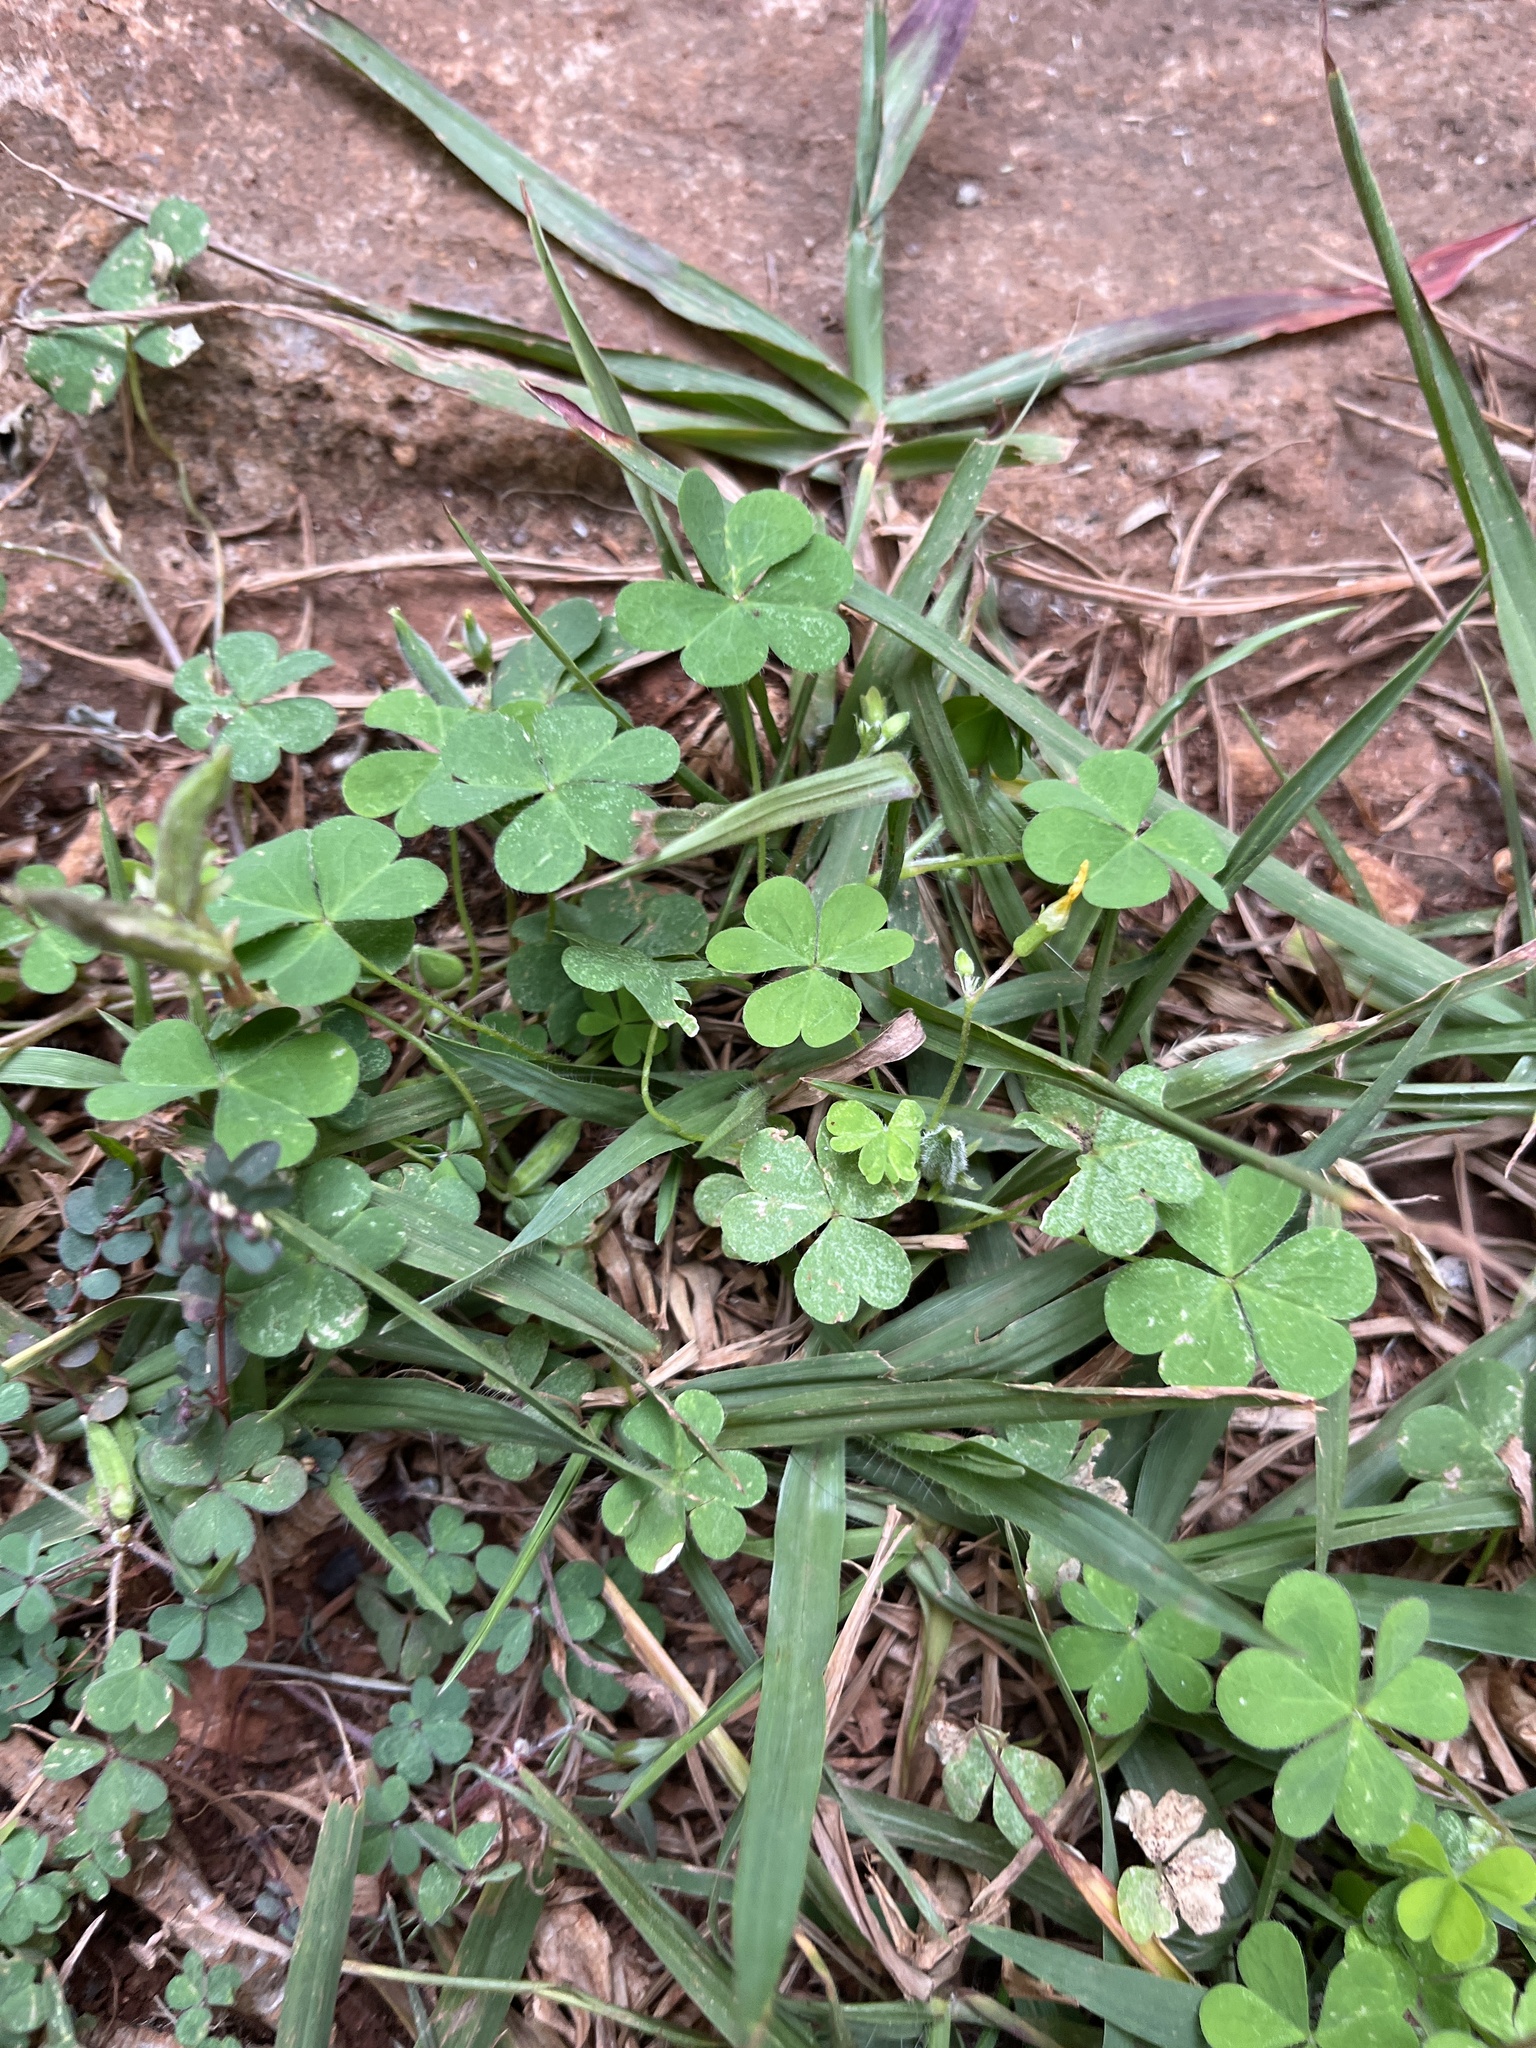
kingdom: Plantae
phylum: Tracheophyta
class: Magnoliopsida
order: Oxalidales
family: Oxalidaceae
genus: Oxalis
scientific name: Oxalis corniculata
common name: Procumbent yellow-sorrel
